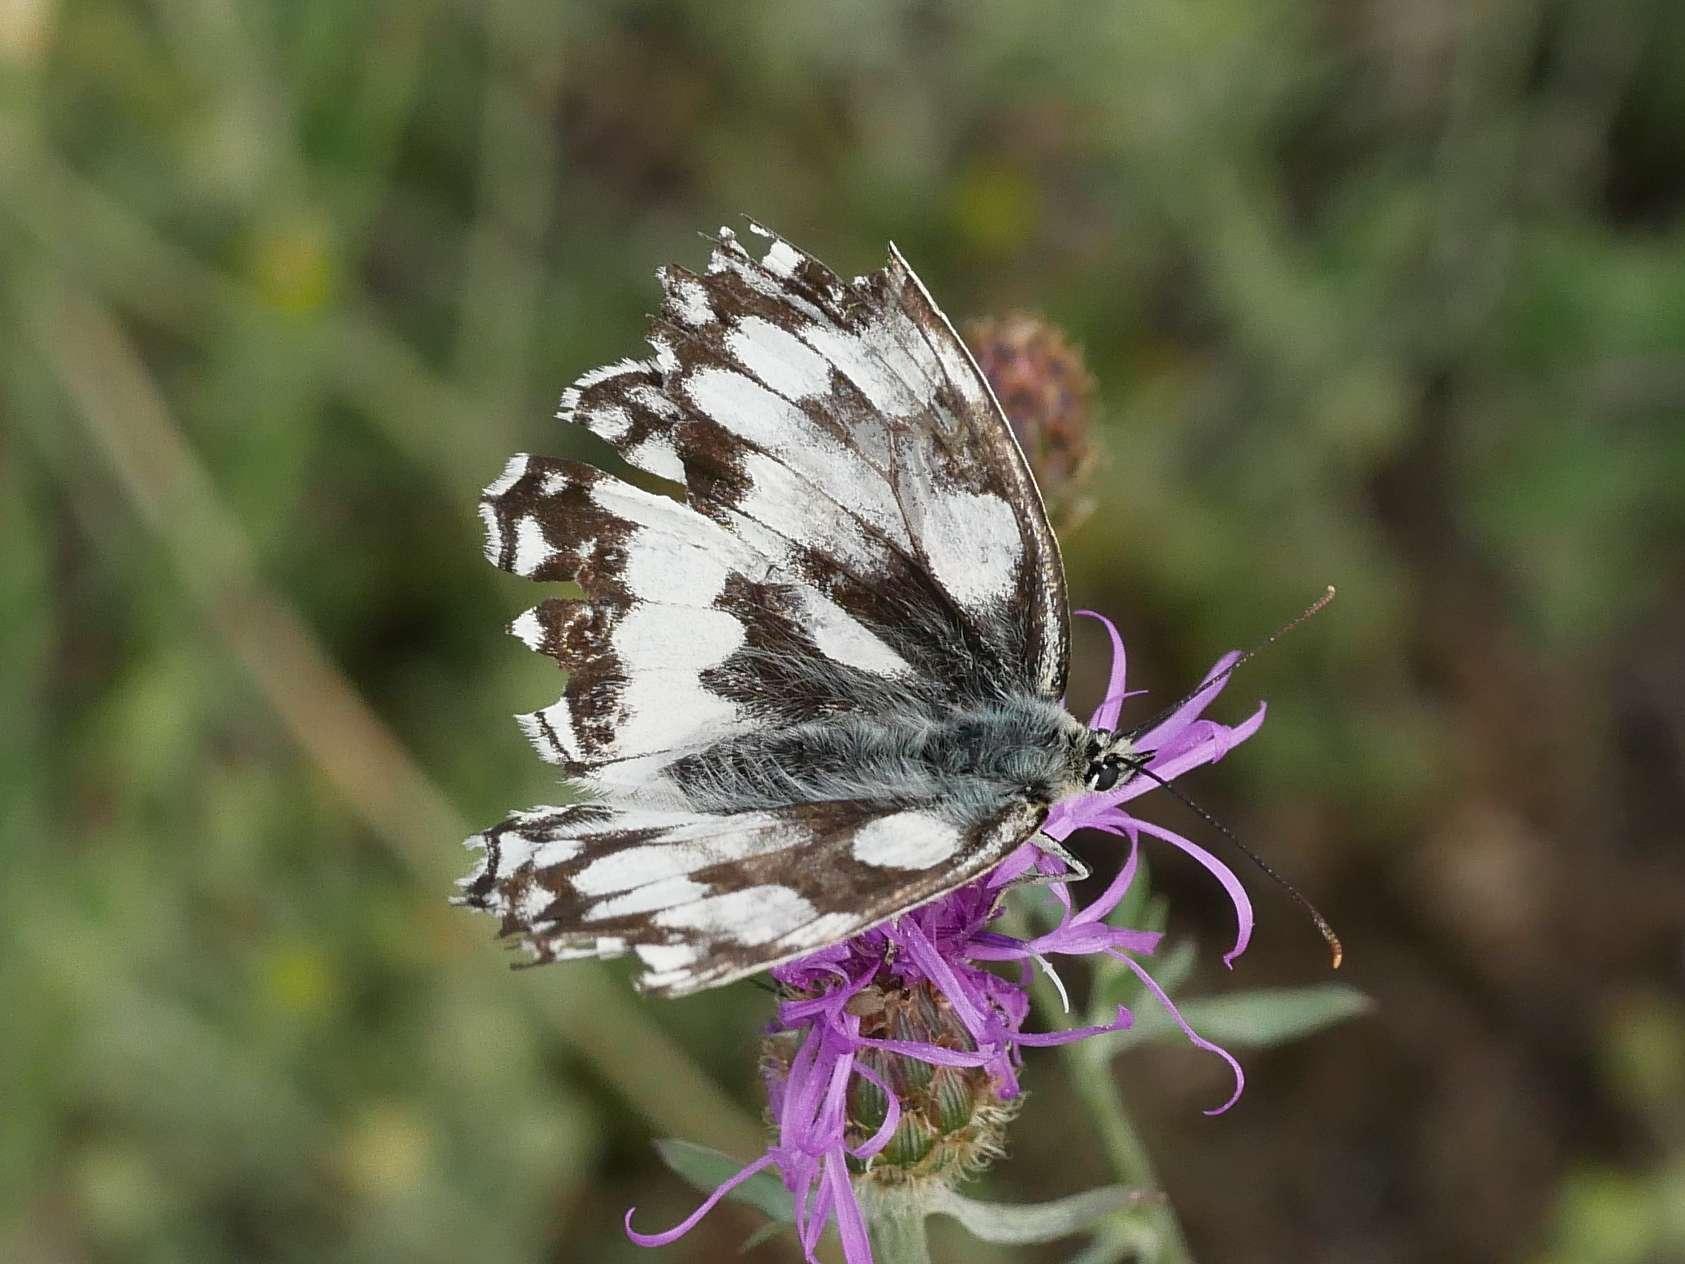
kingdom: Animalia
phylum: Arthropoda
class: Insecta
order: Lepidoptera
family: Nymphalidae
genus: Melanargia
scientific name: Melanargia galathea
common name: Marbled white
